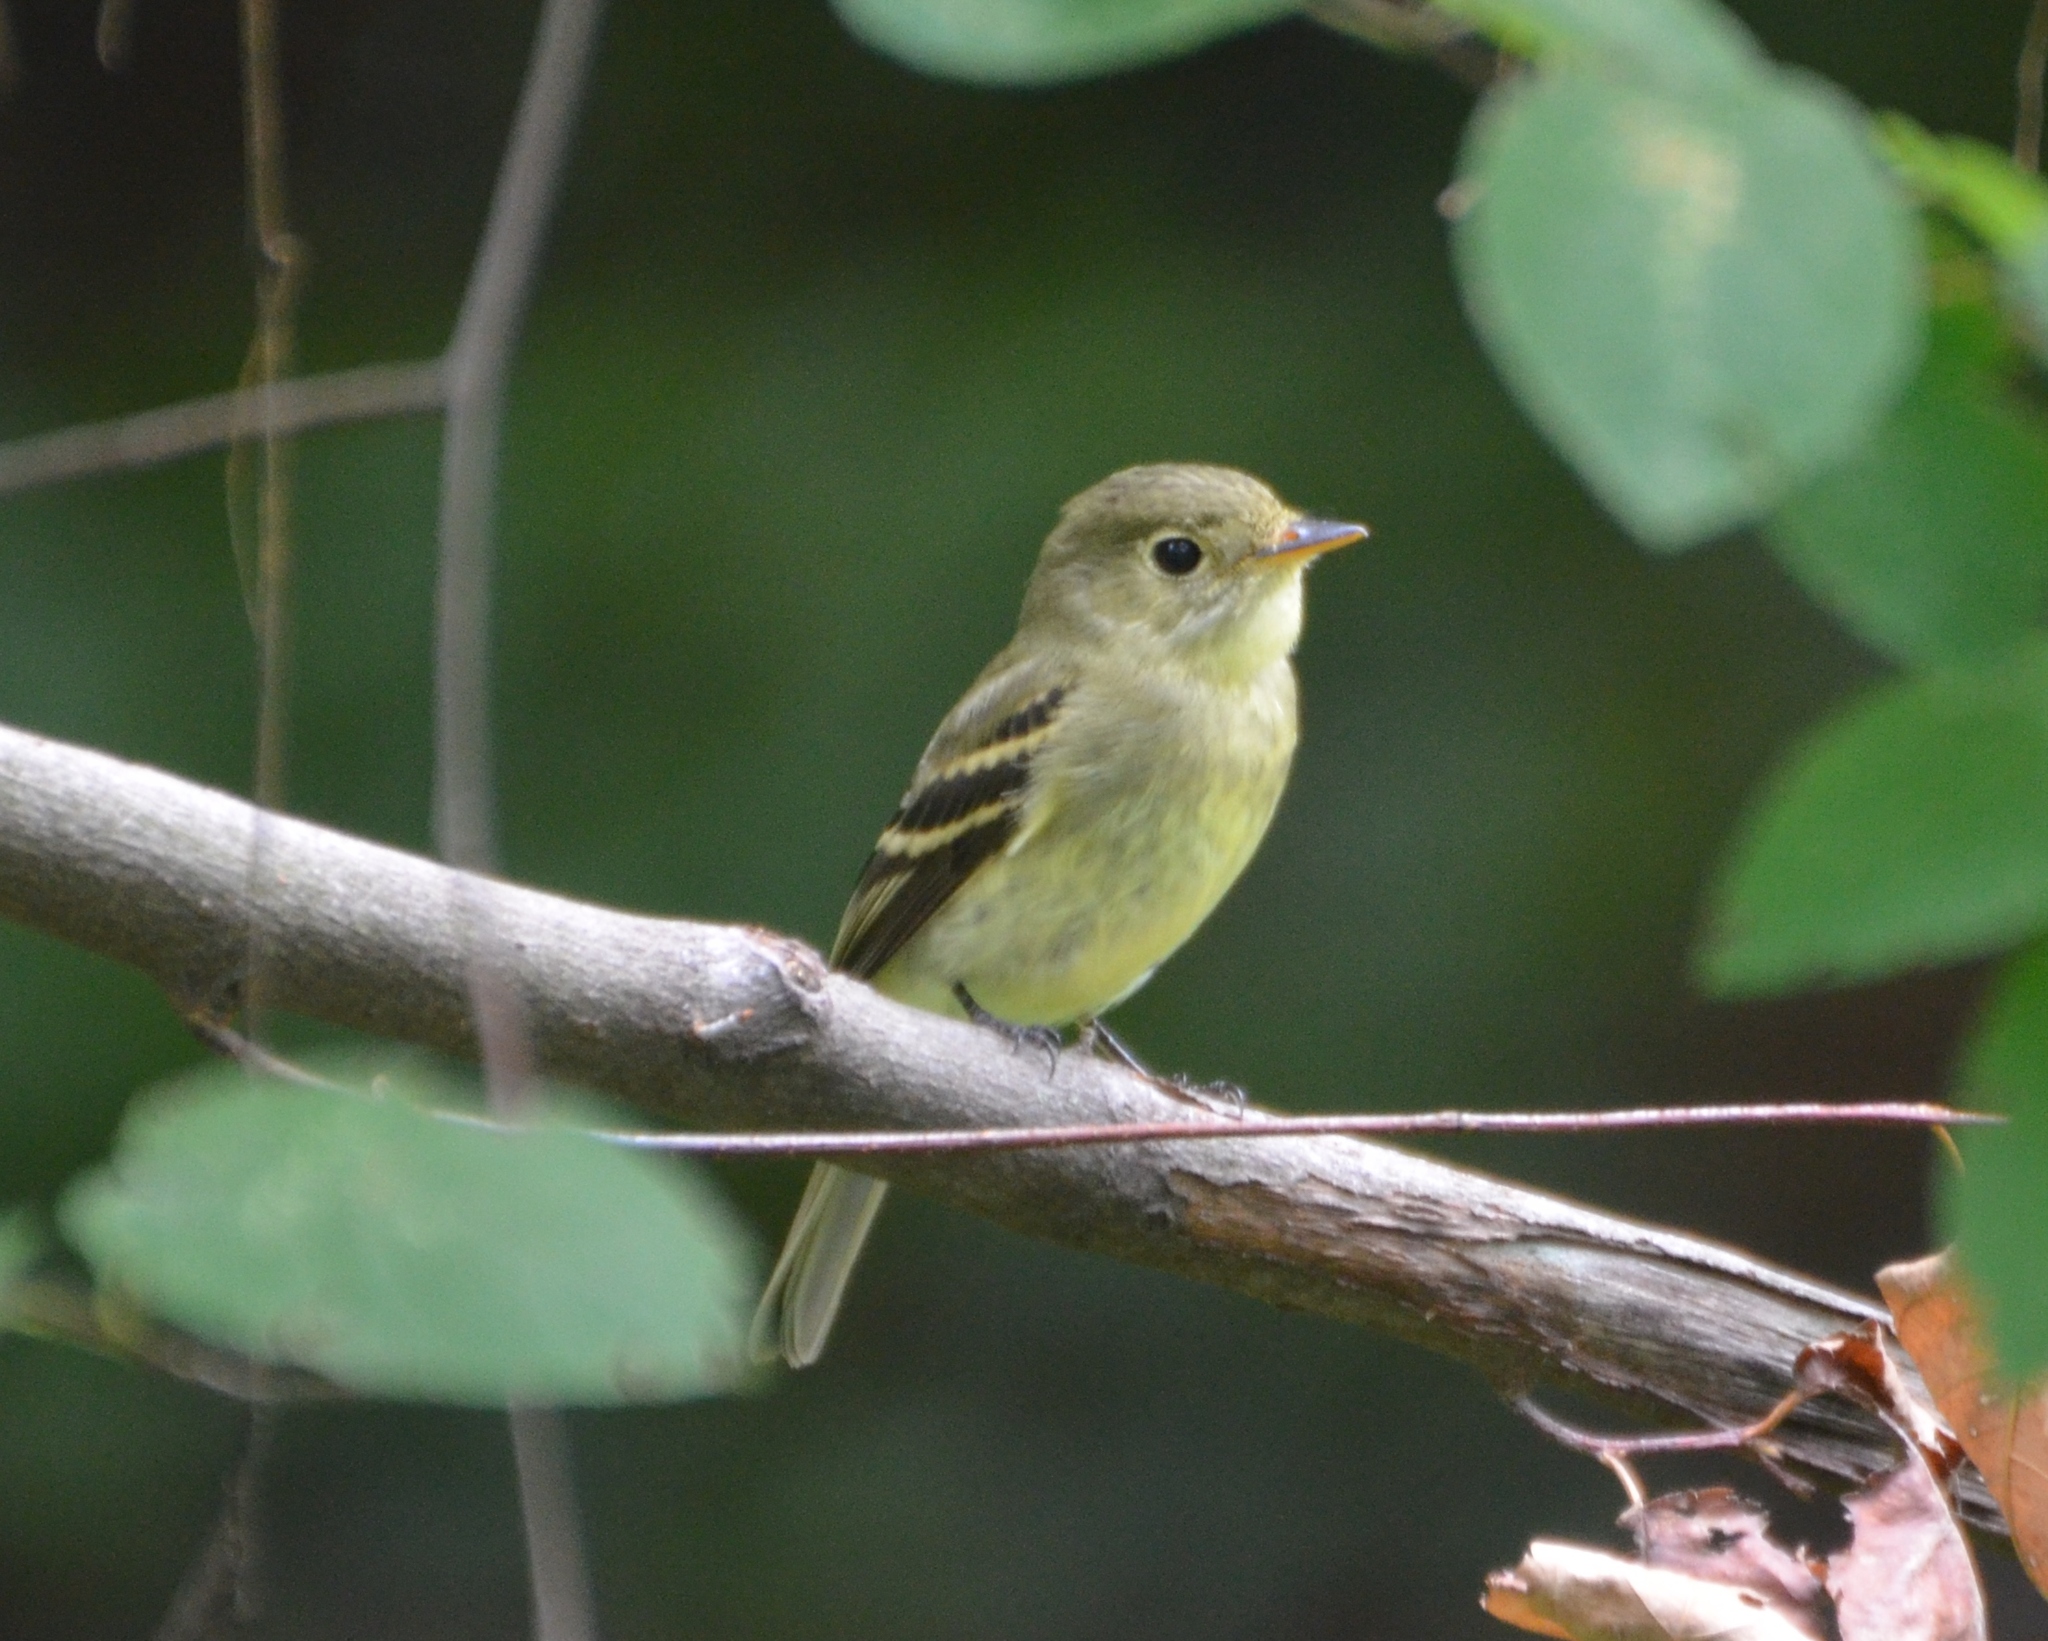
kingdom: Animalia
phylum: Chordata
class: Aves
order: Passeriformes
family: Tyrannidae
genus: Empidonax
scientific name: Empidonax flaviventris
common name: Yellow-bellied flycatcher
